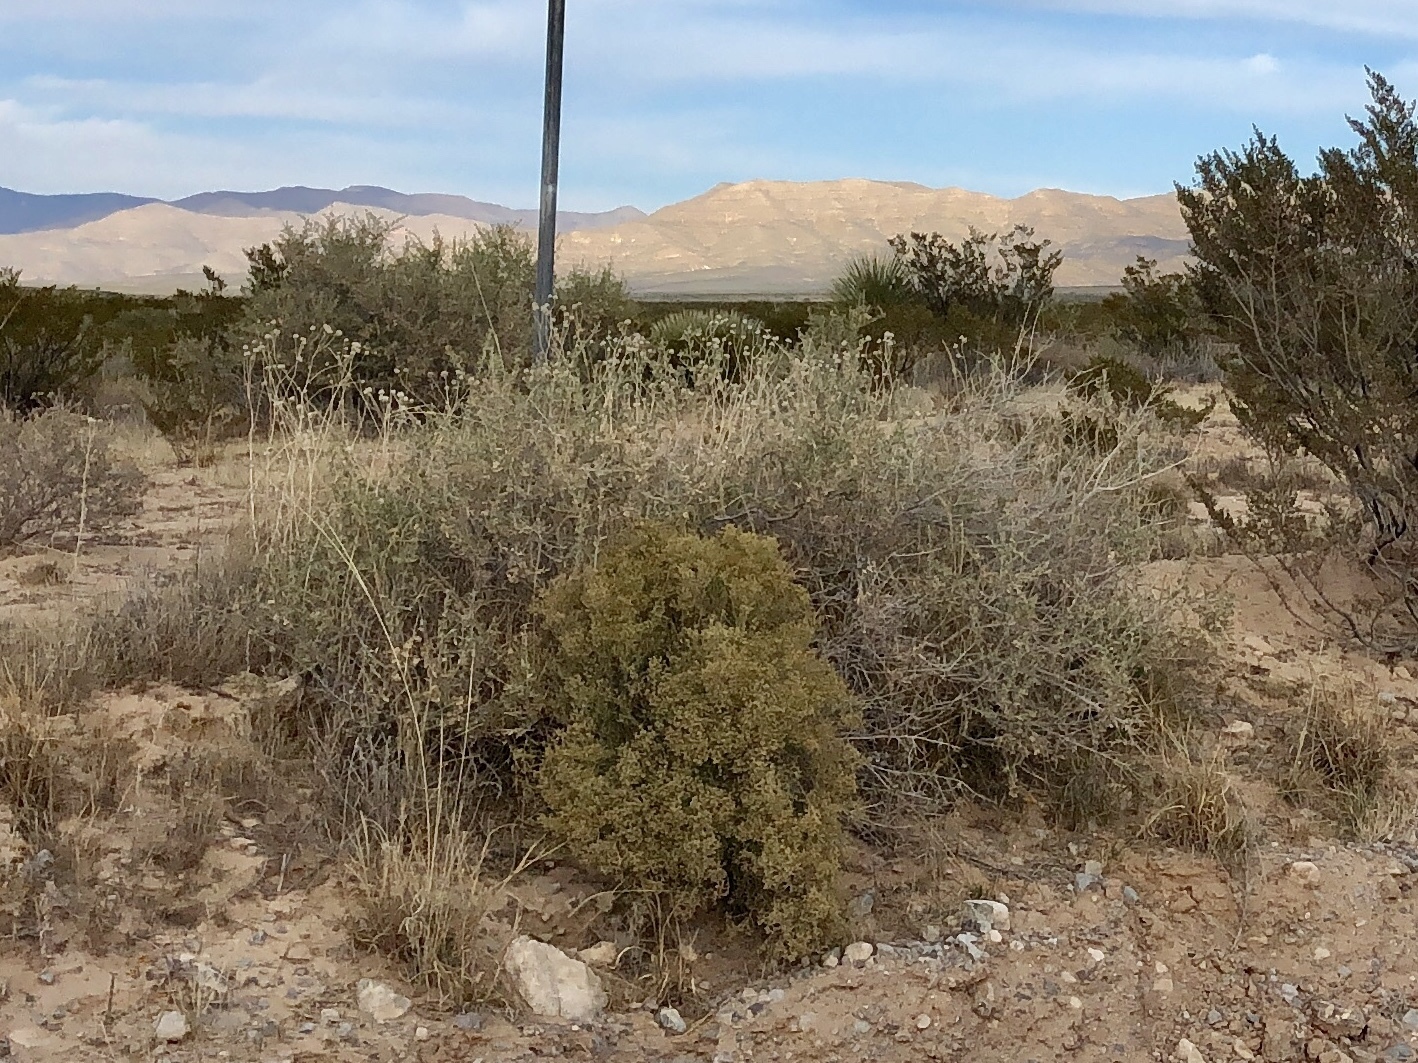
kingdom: Plantae
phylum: Tracheophyta
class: Magnoliopsida
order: Caryophyllales
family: Amaranthaceae
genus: Atriplex
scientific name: Atriplex canescens
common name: Four-wing saltbush
